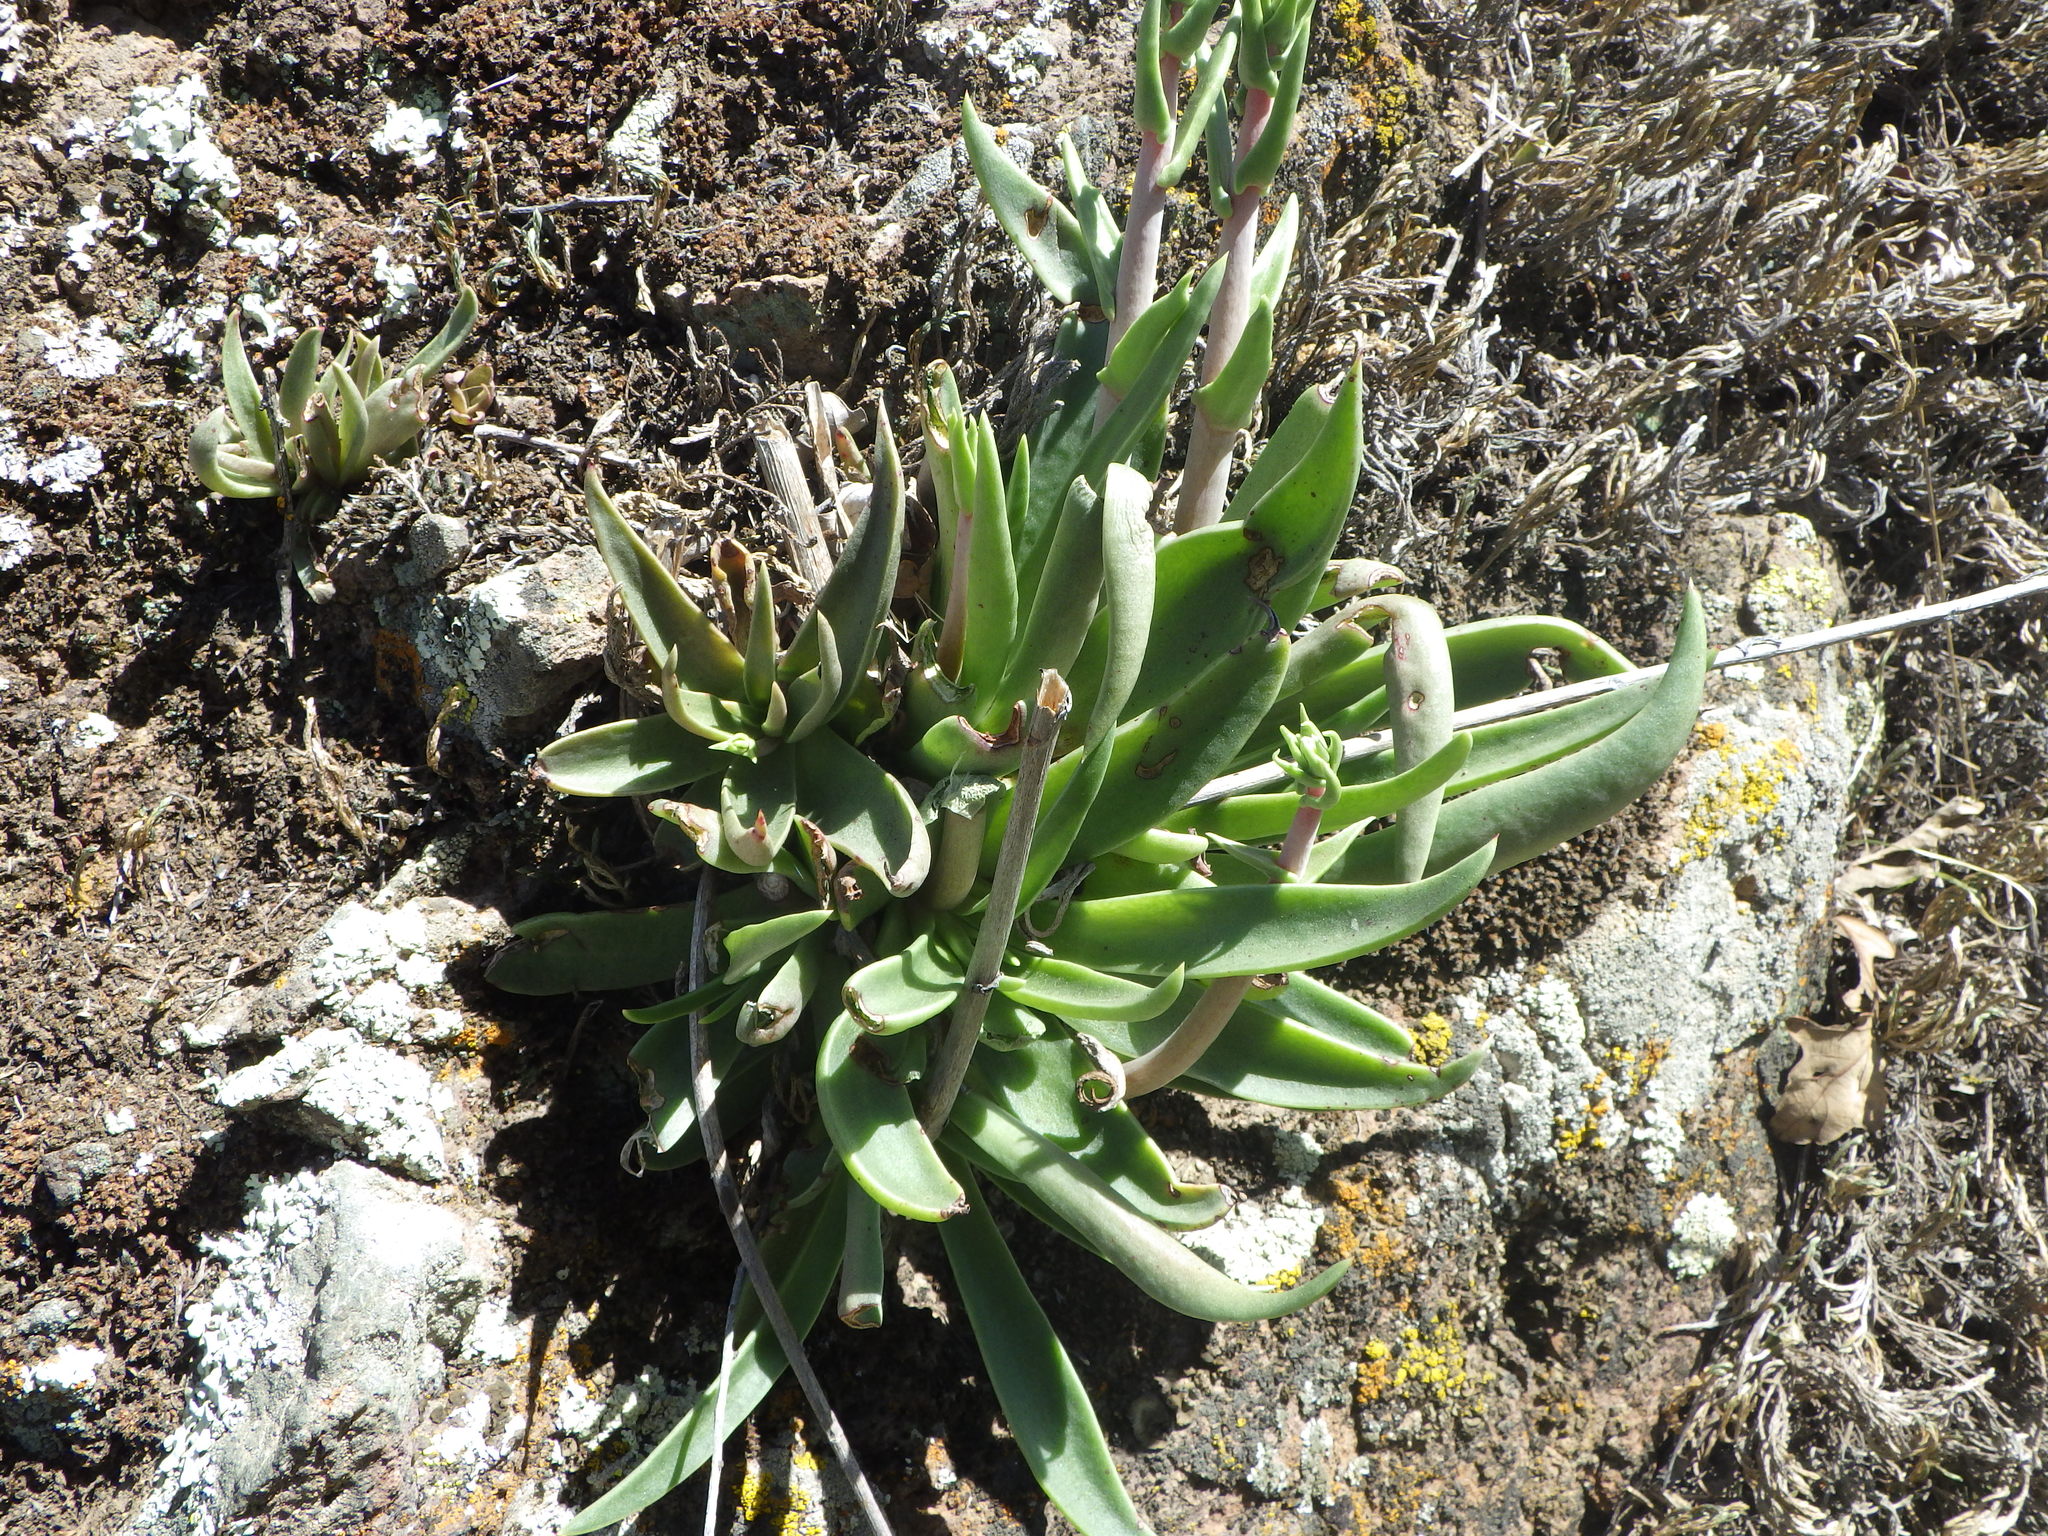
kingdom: Plantae
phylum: Tracheophyta
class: Magnoliopsida
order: Saxifragales
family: Crassulaceae
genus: Dudleya
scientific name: Dudleya lanceolata
